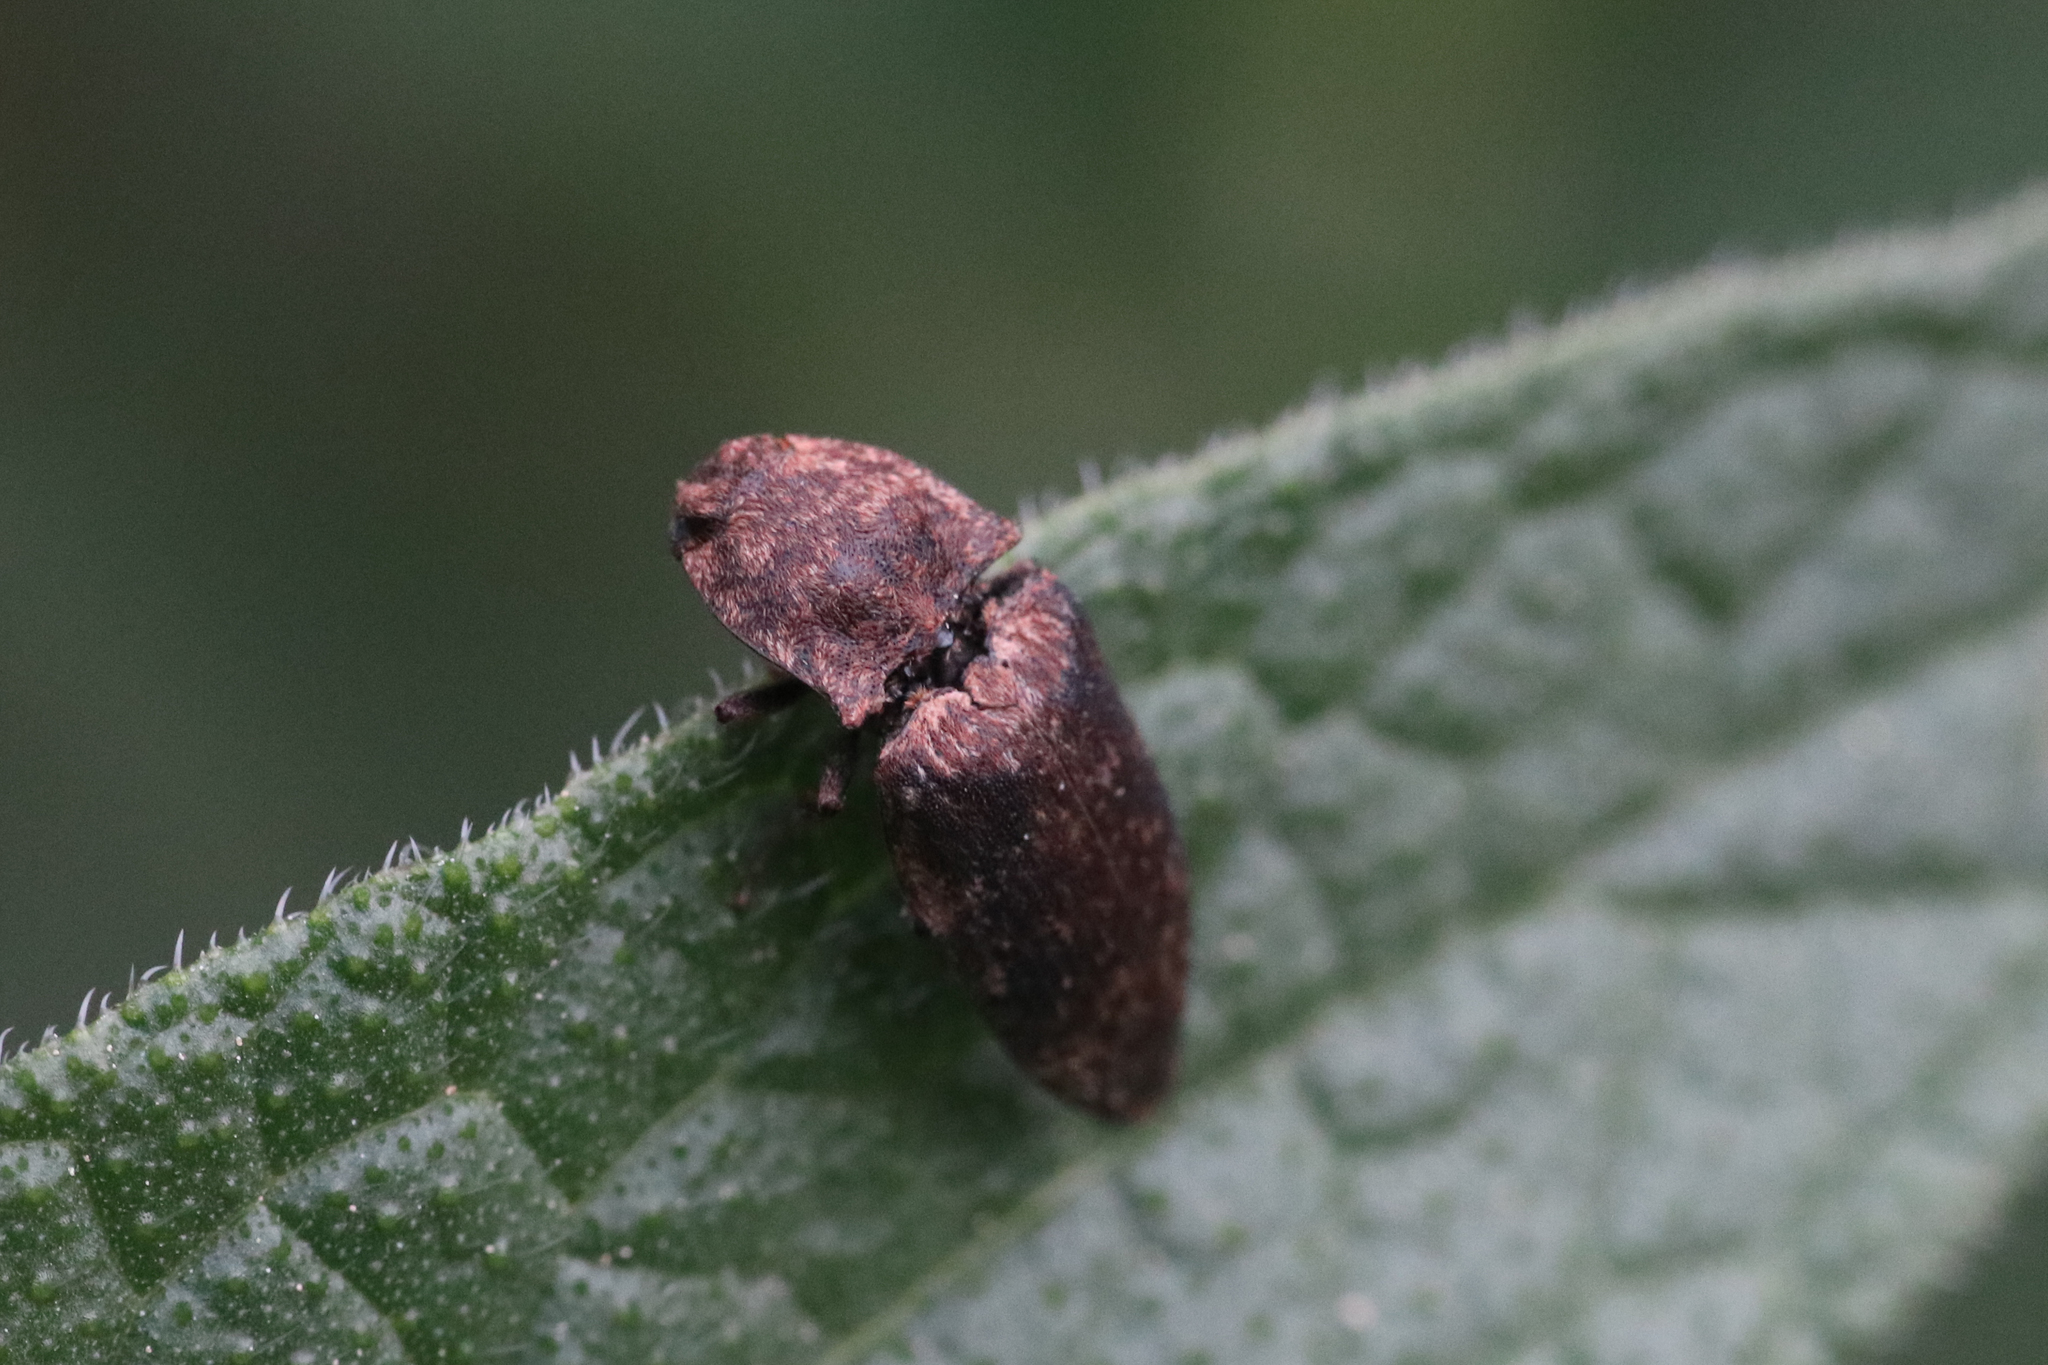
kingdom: Animalia
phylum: Arthropoda
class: Insecta
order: Coleoptera
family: Elateridae
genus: Agrypnus
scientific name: Agrypnus murinus
